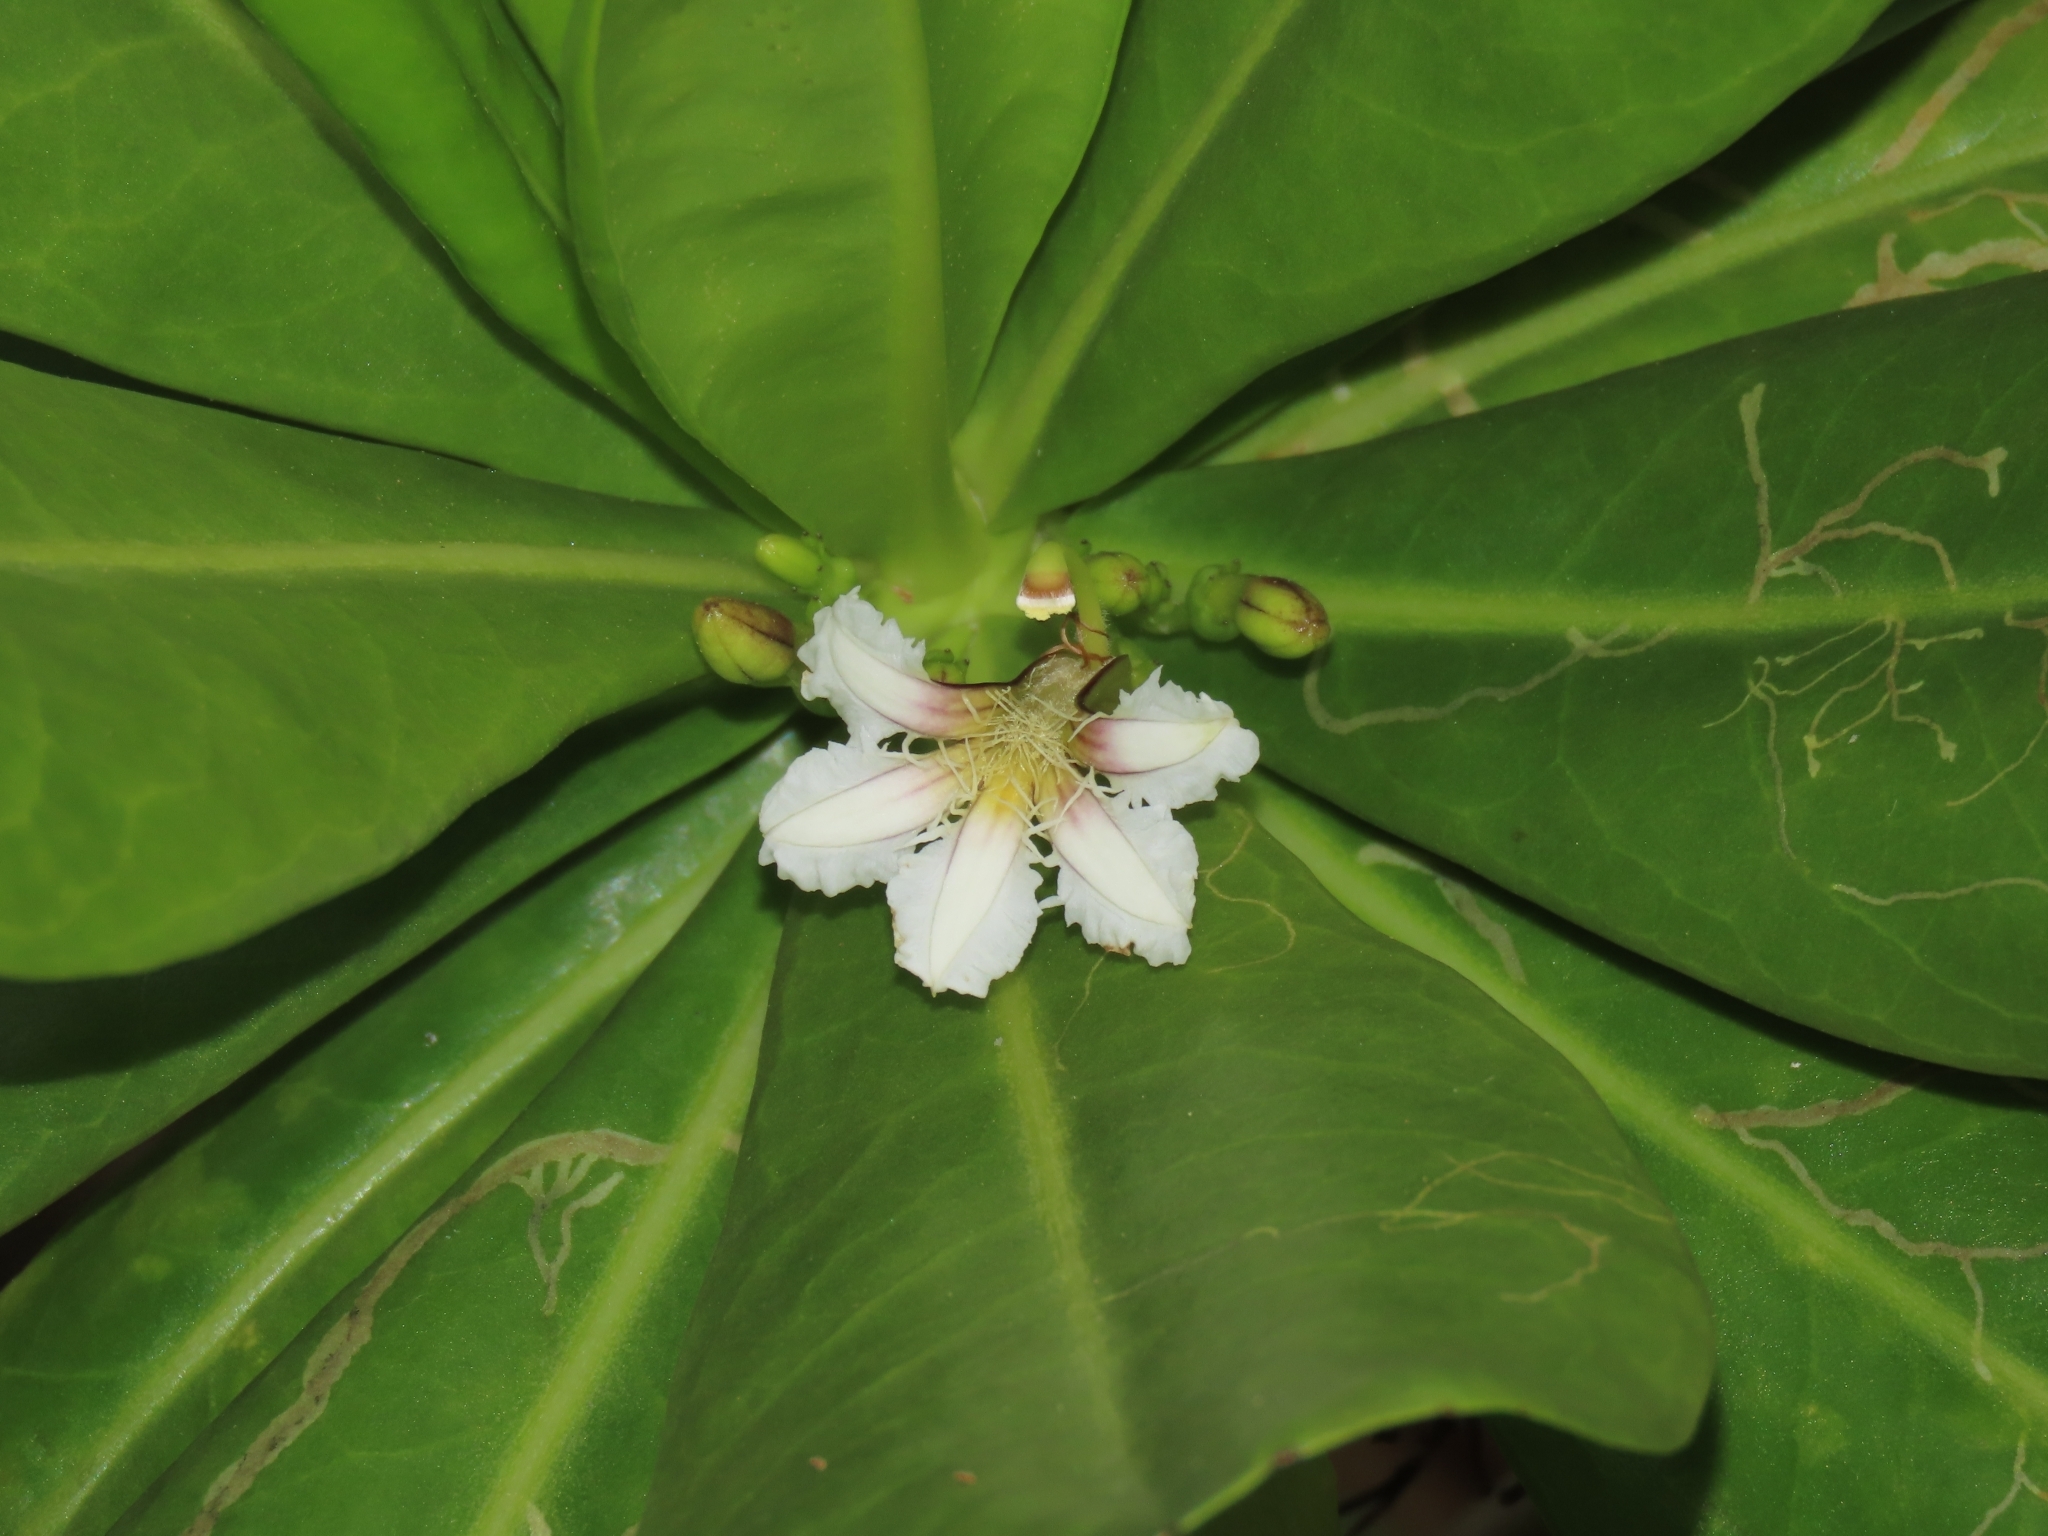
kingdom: Plantae
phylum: Tracheophyta
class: Magnoliopsida
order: Asterales
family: Goodeniaceae
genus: Scaevola
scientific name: Scaevola taccada
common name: Sea lettucetree
